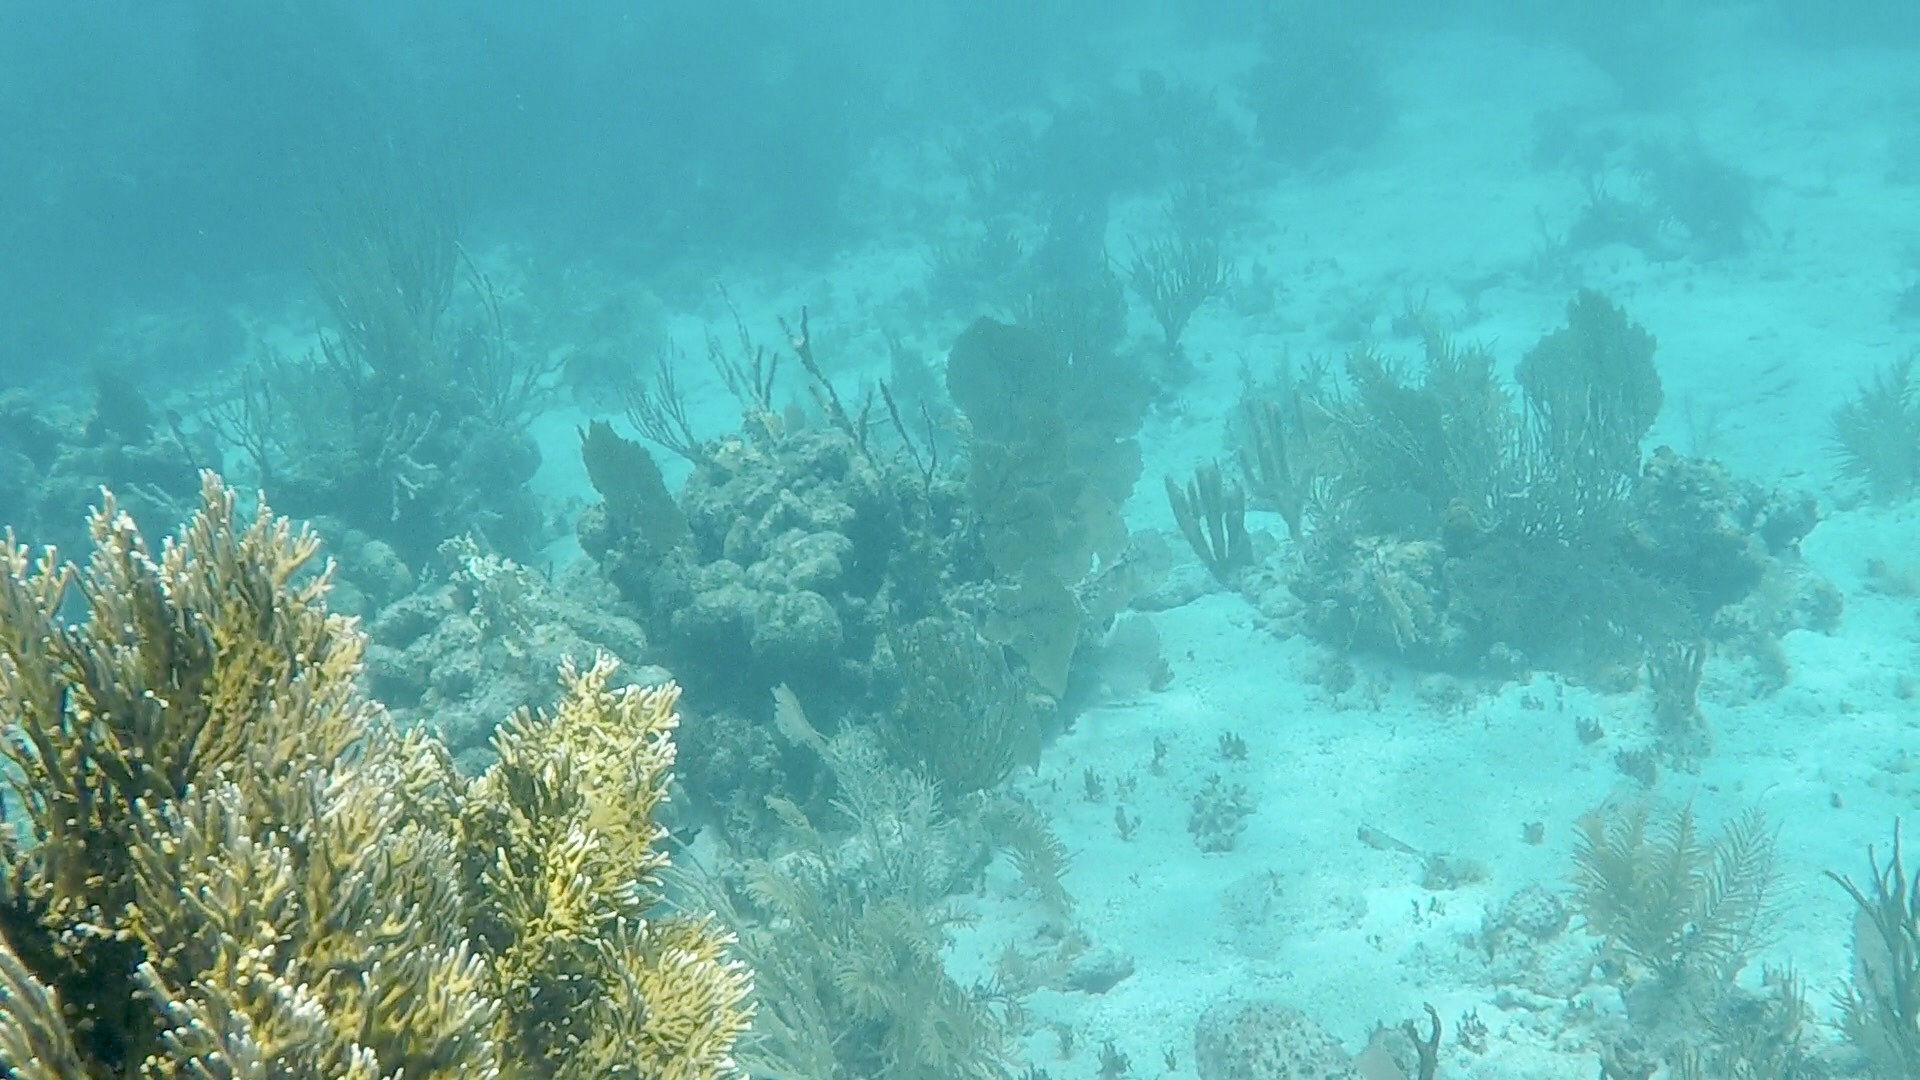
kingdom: Animalia
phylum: Cnidaria
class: Hydrozoa
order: Anthoathecata
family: Milleporidae
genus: Millepora
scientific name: Millepora alcicornis
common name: Branching fire coral
